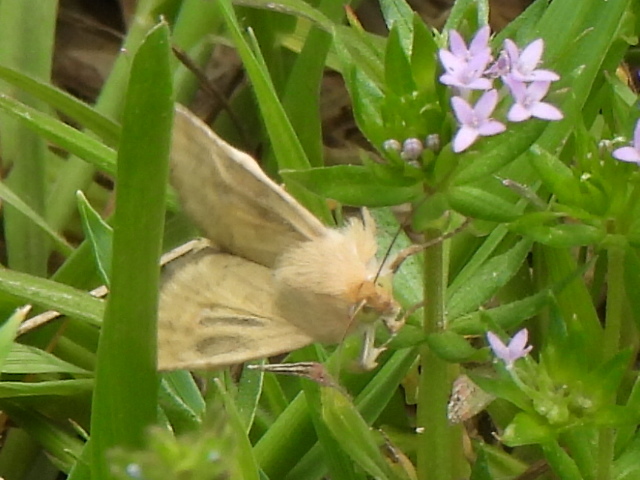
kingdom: Animalia
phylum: Arthropoda
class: Insecta
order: Lepidoptera
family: Noctuidae
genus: Helicoverpa
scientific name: Helicoverpa zea
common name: Bollworm
